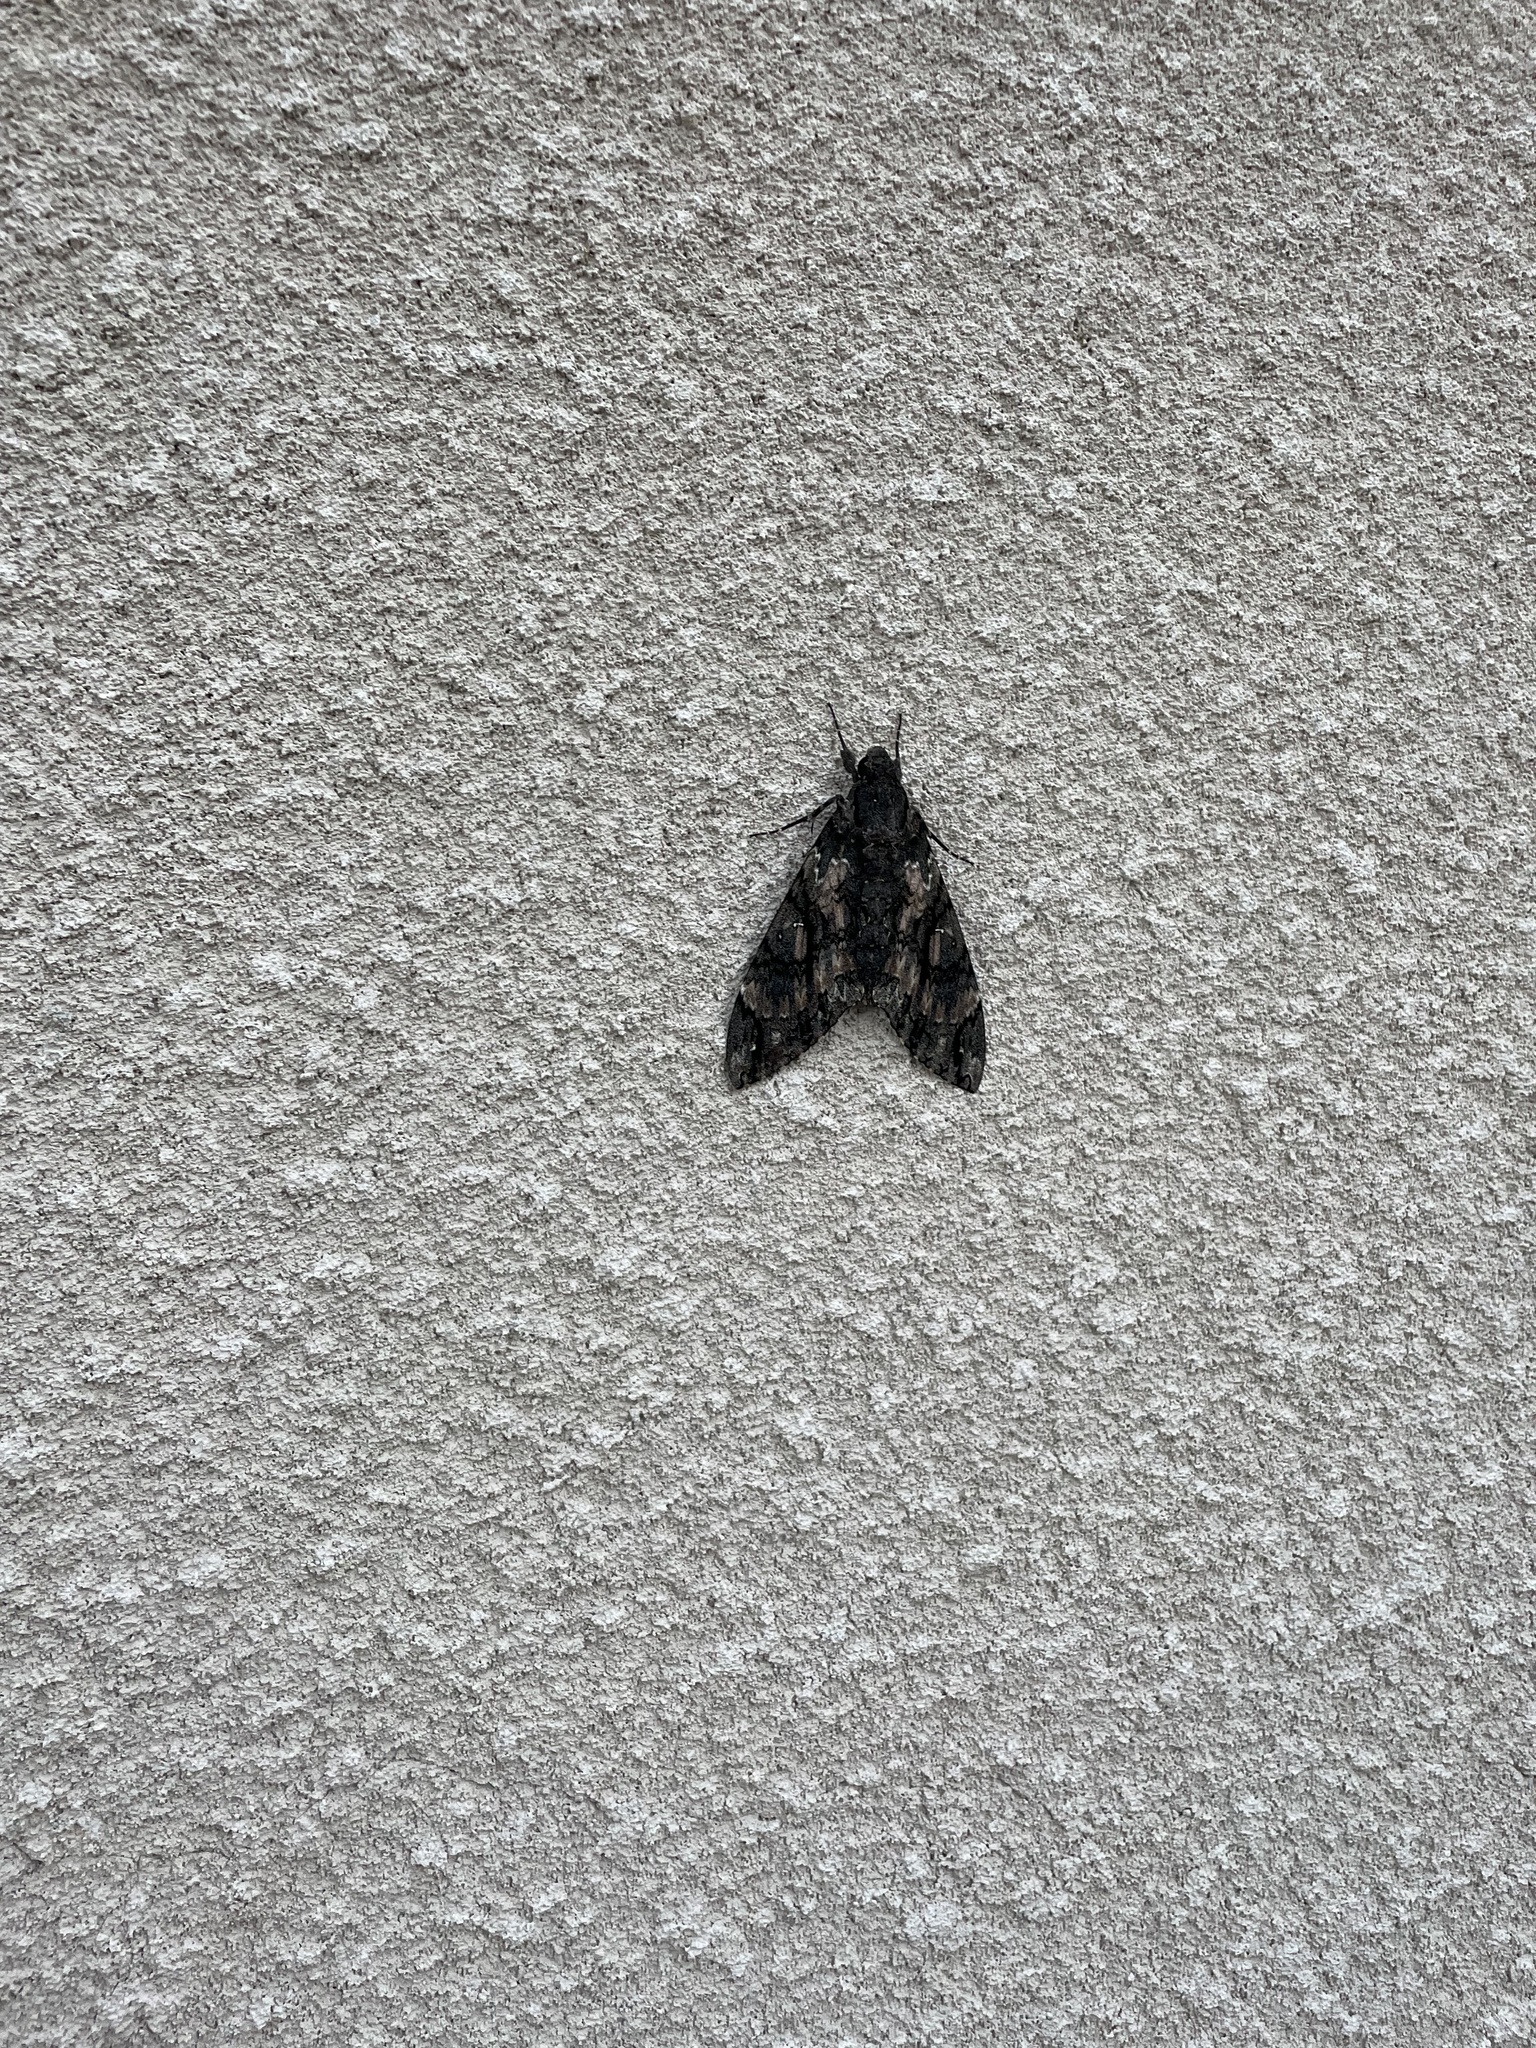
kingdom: Animalia
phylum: Arthropoda
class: Insecta
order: Lepidoptera
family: Sphingidae
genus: Cocytius
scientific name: Cocytius antaeus
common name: Giant sphinx
